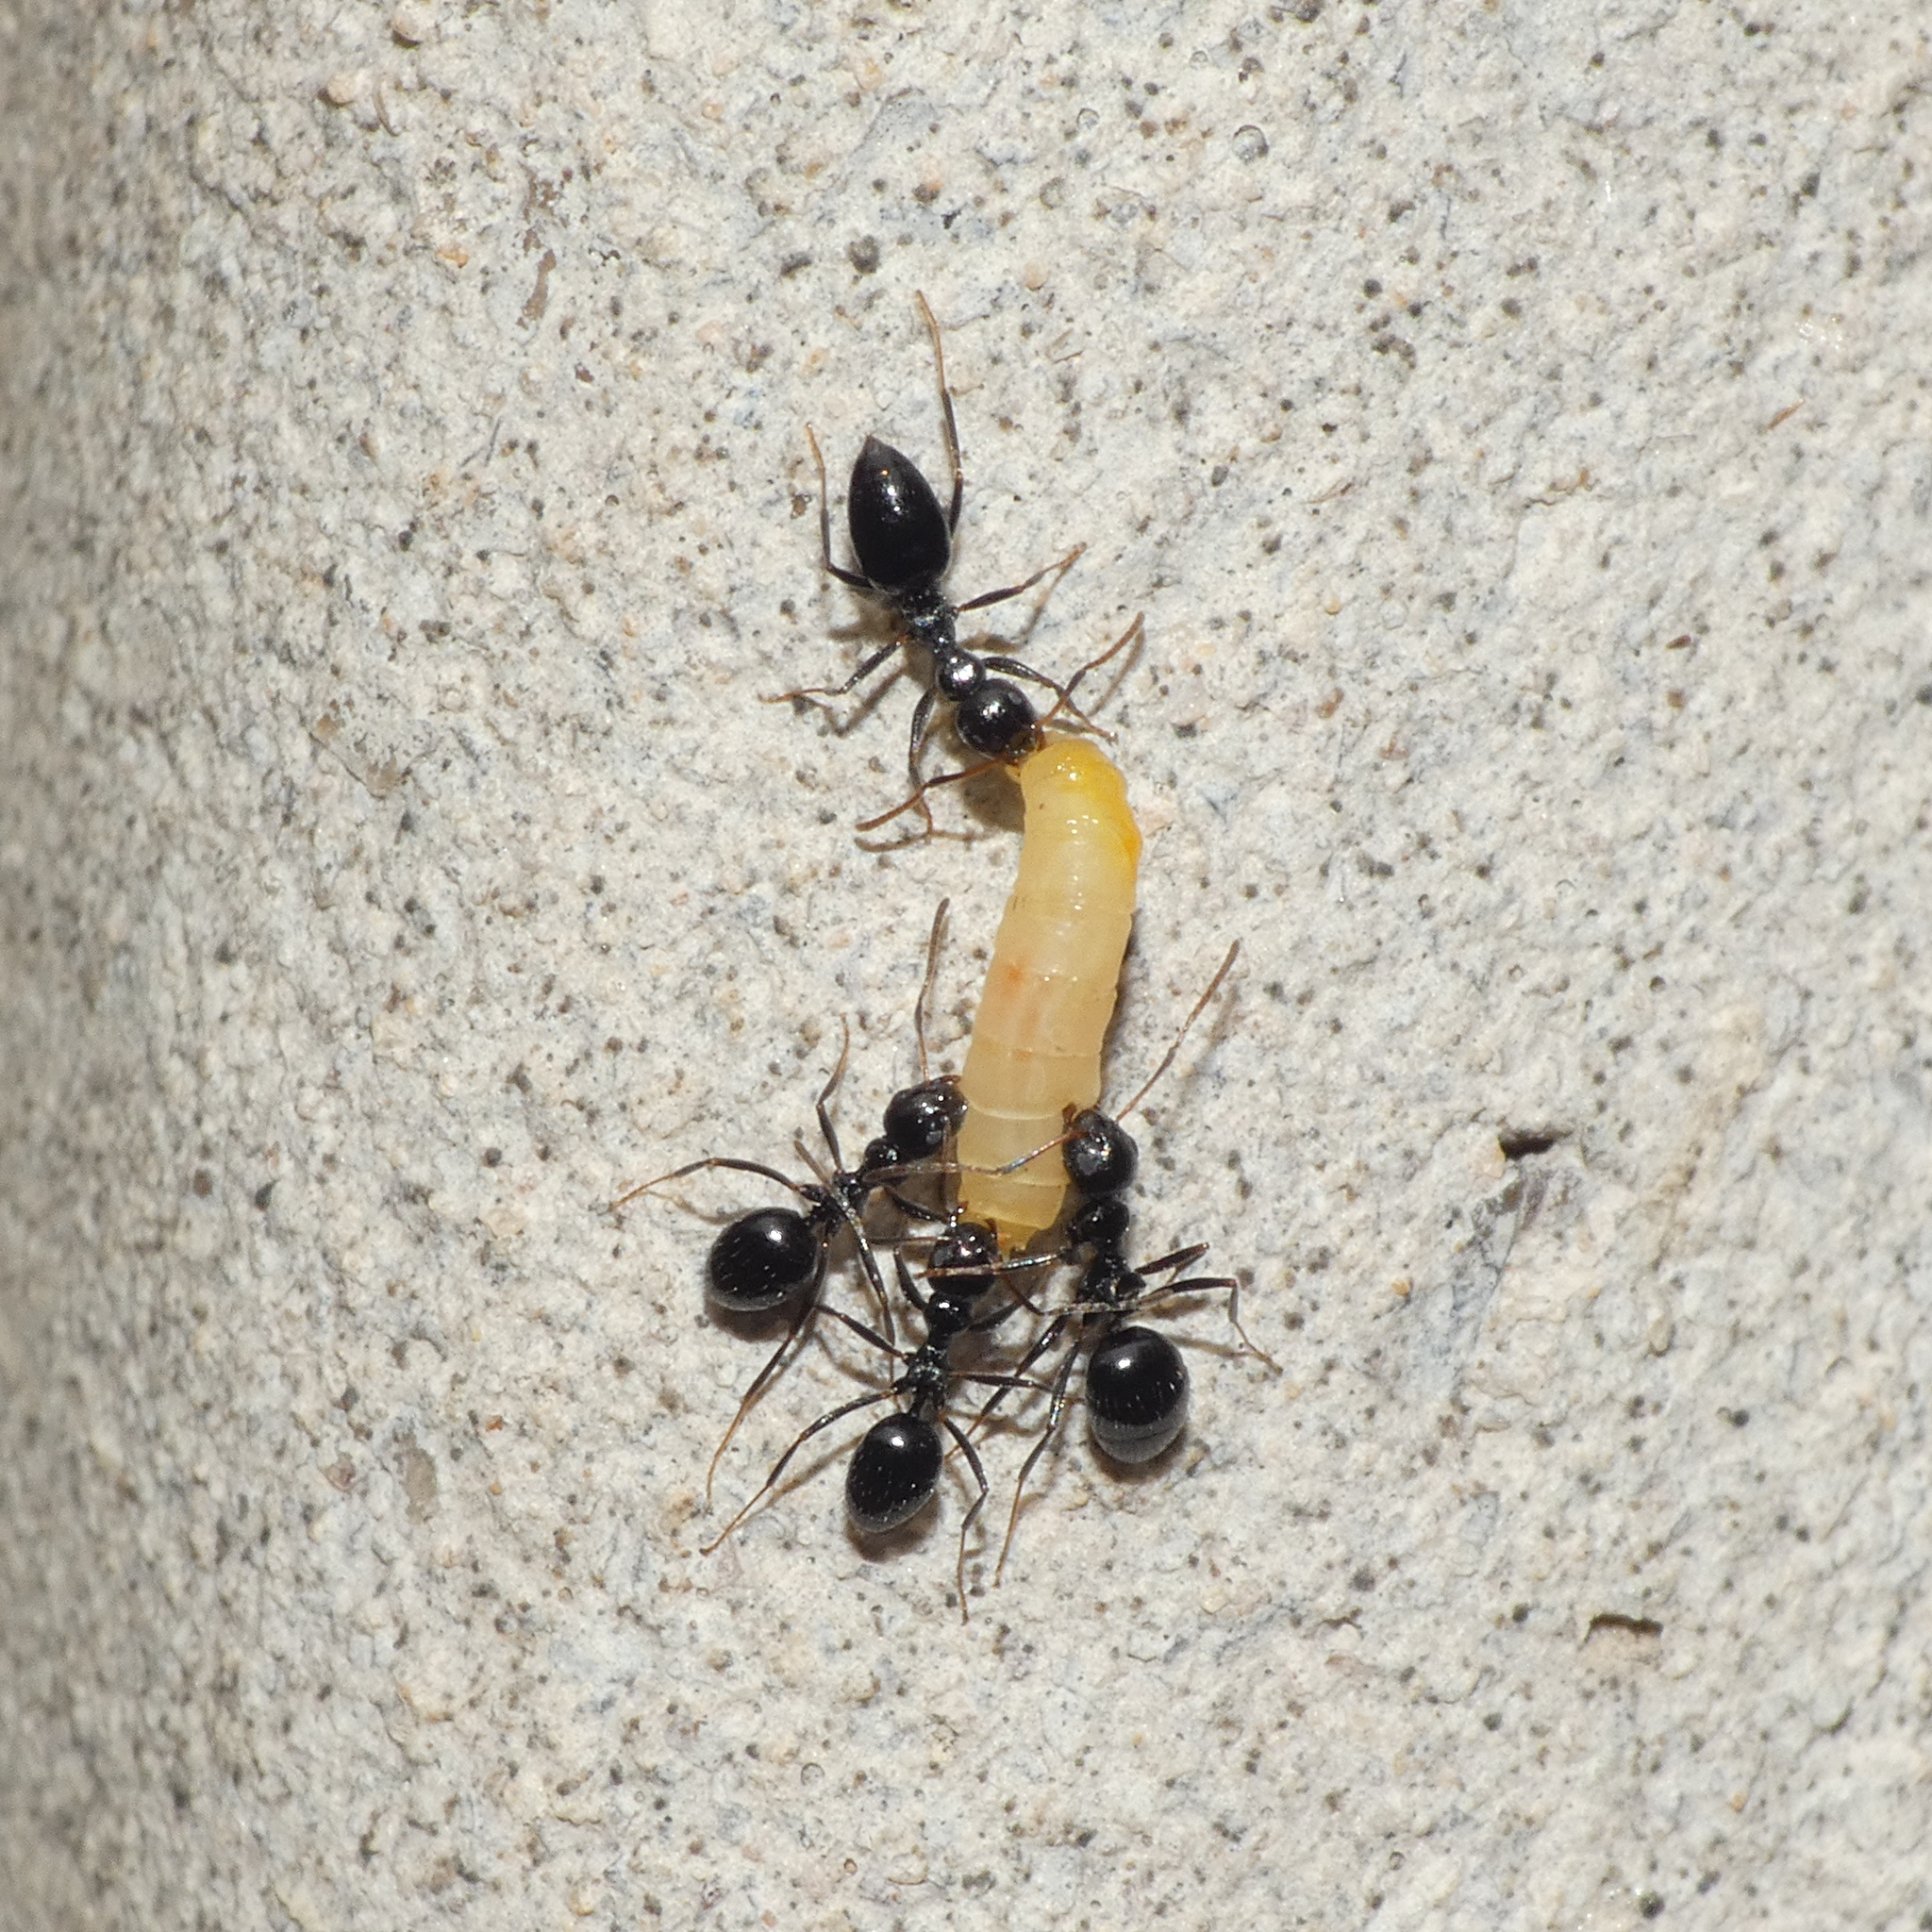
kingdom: Animalia
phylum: Arthropoda
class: Insecta
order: Hymenoptera
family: Formicidae
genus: Lepisiota
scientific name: Lepisiota capensis
